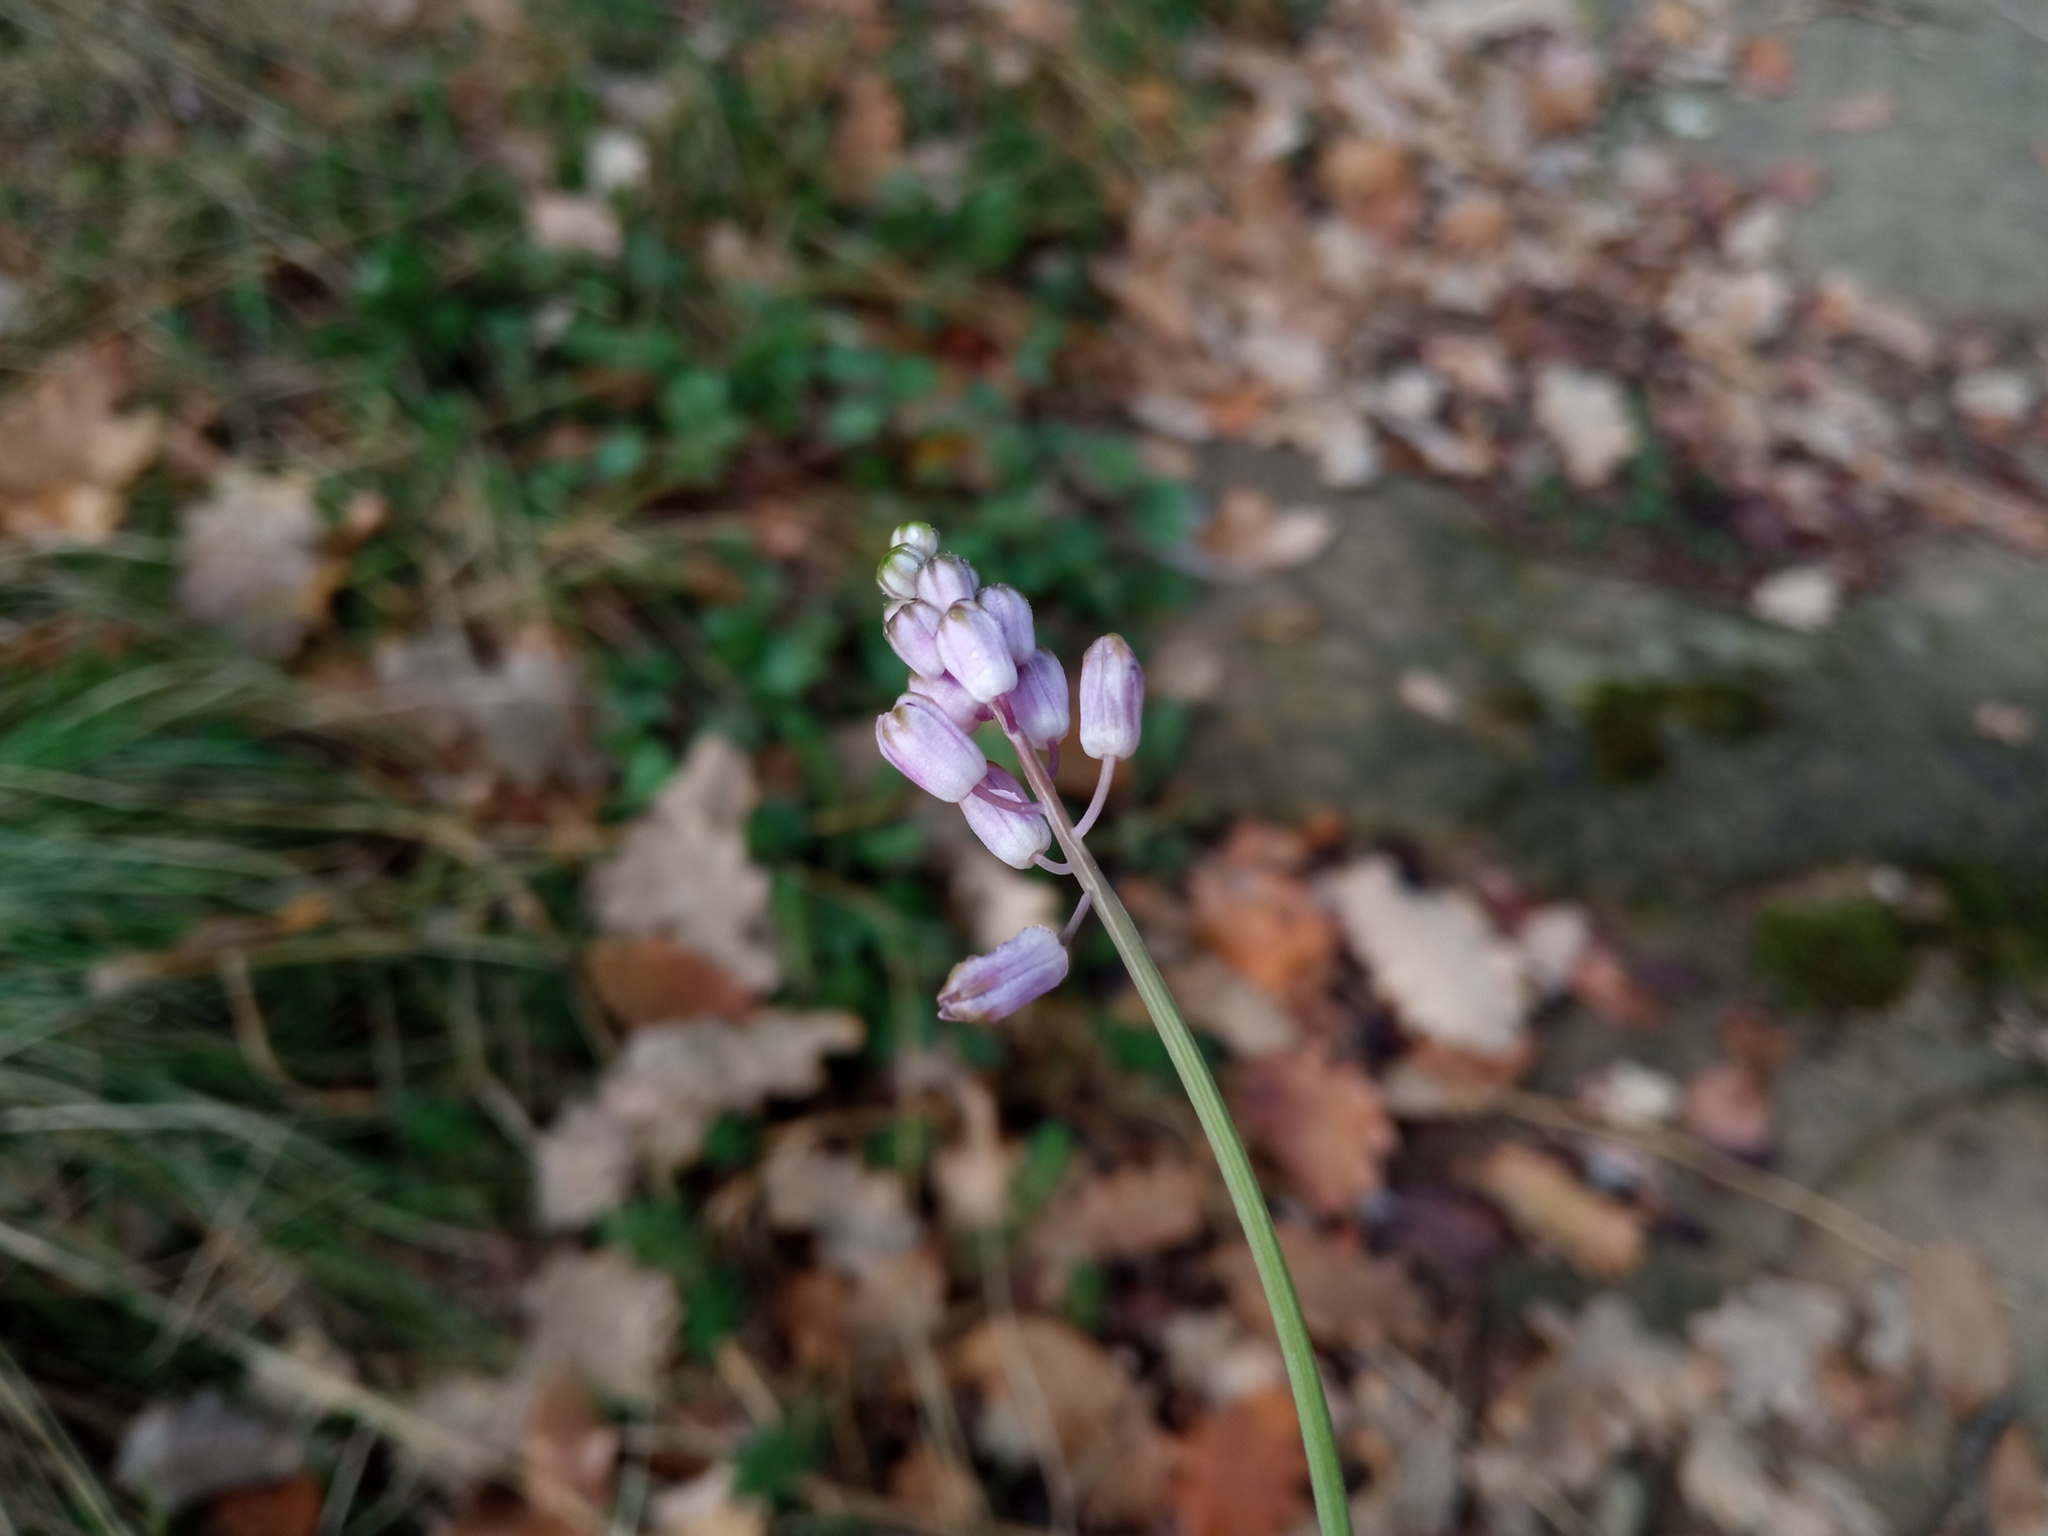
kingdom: Plantae
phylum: Tracheophyta
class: Liliopsida
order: Asparagales
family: Asparagaceae
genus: Prospero
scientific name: Prospero autumnale
